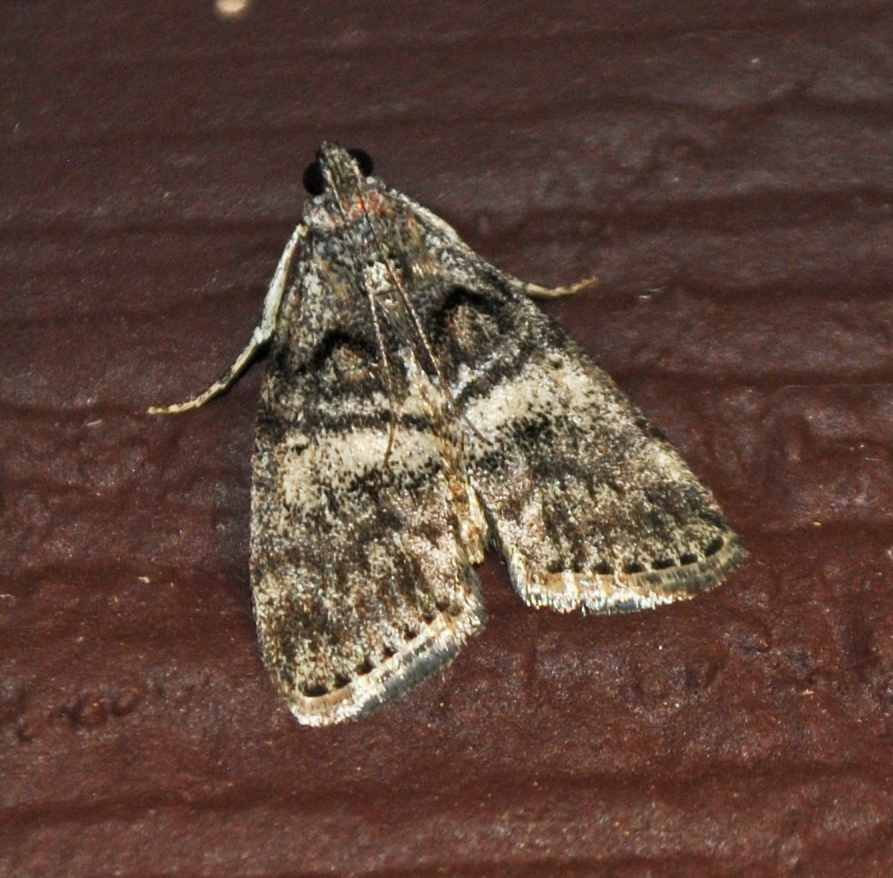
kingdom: Animalia
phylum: Arthropoda
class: Insecta
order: Lepidoptera
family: Pyralidae
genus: Pococera
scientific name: Pococera asperatella
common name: Maple webworm moth
